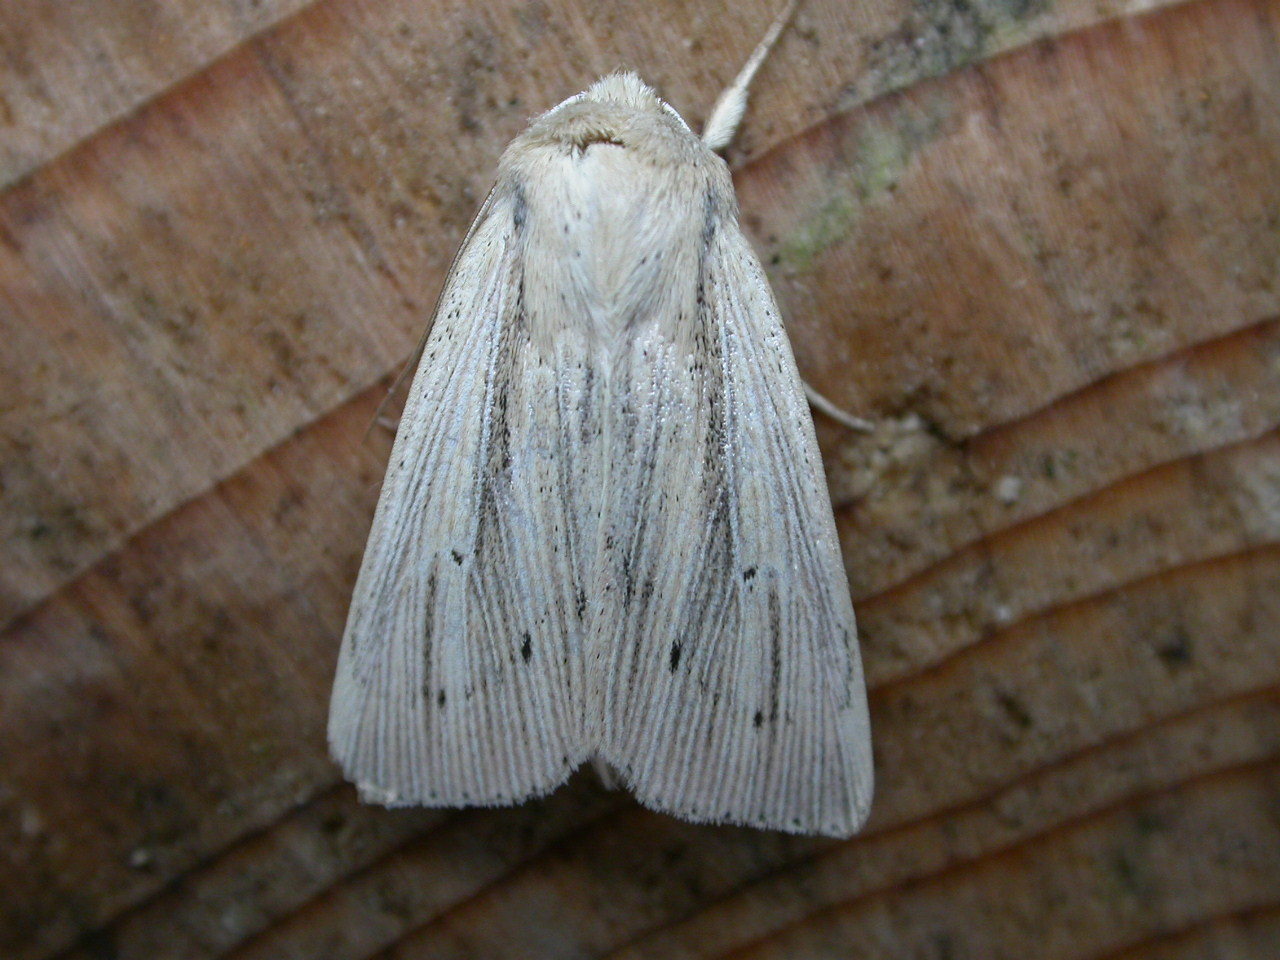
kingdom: Animalia
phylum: Arthropoda
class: Insecta
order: Lepidoptera
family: Noctuidae
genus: Mythimna
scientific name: Mythimna straminea
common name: Southern wainscot
